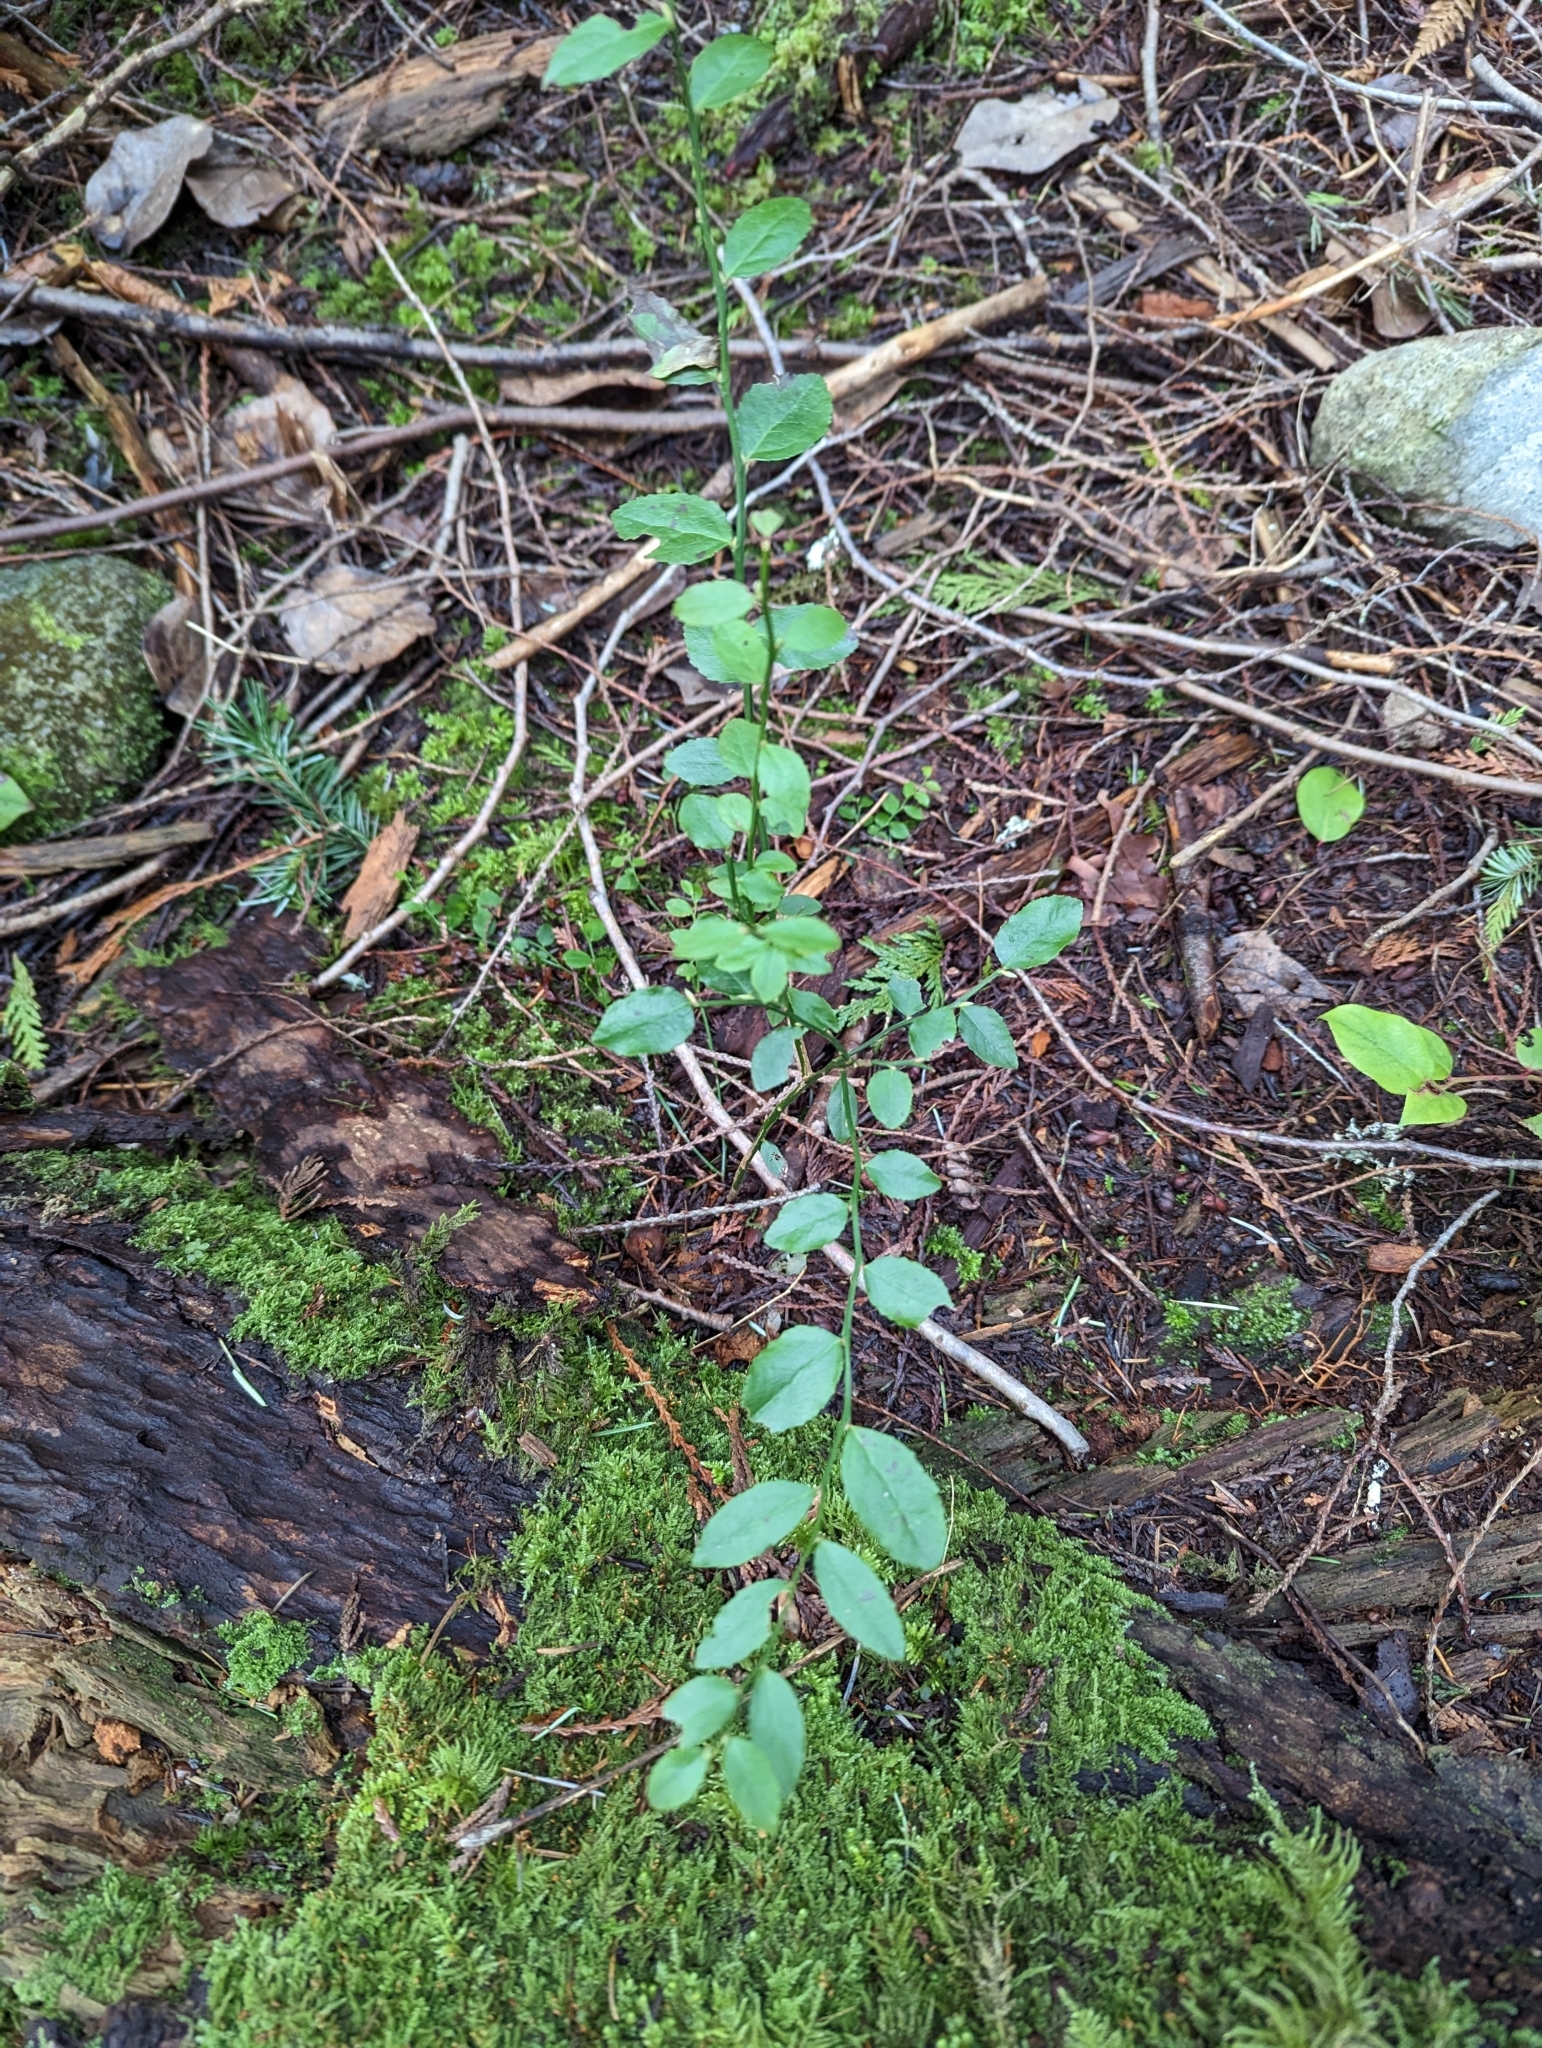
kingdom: Plantae
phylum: Tracheophyta
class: Magnoliopsida
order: Ericales
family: Ericaceae
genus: Vaccinium
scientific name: Vaccinium parvifolium
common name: Red-huckleberry
